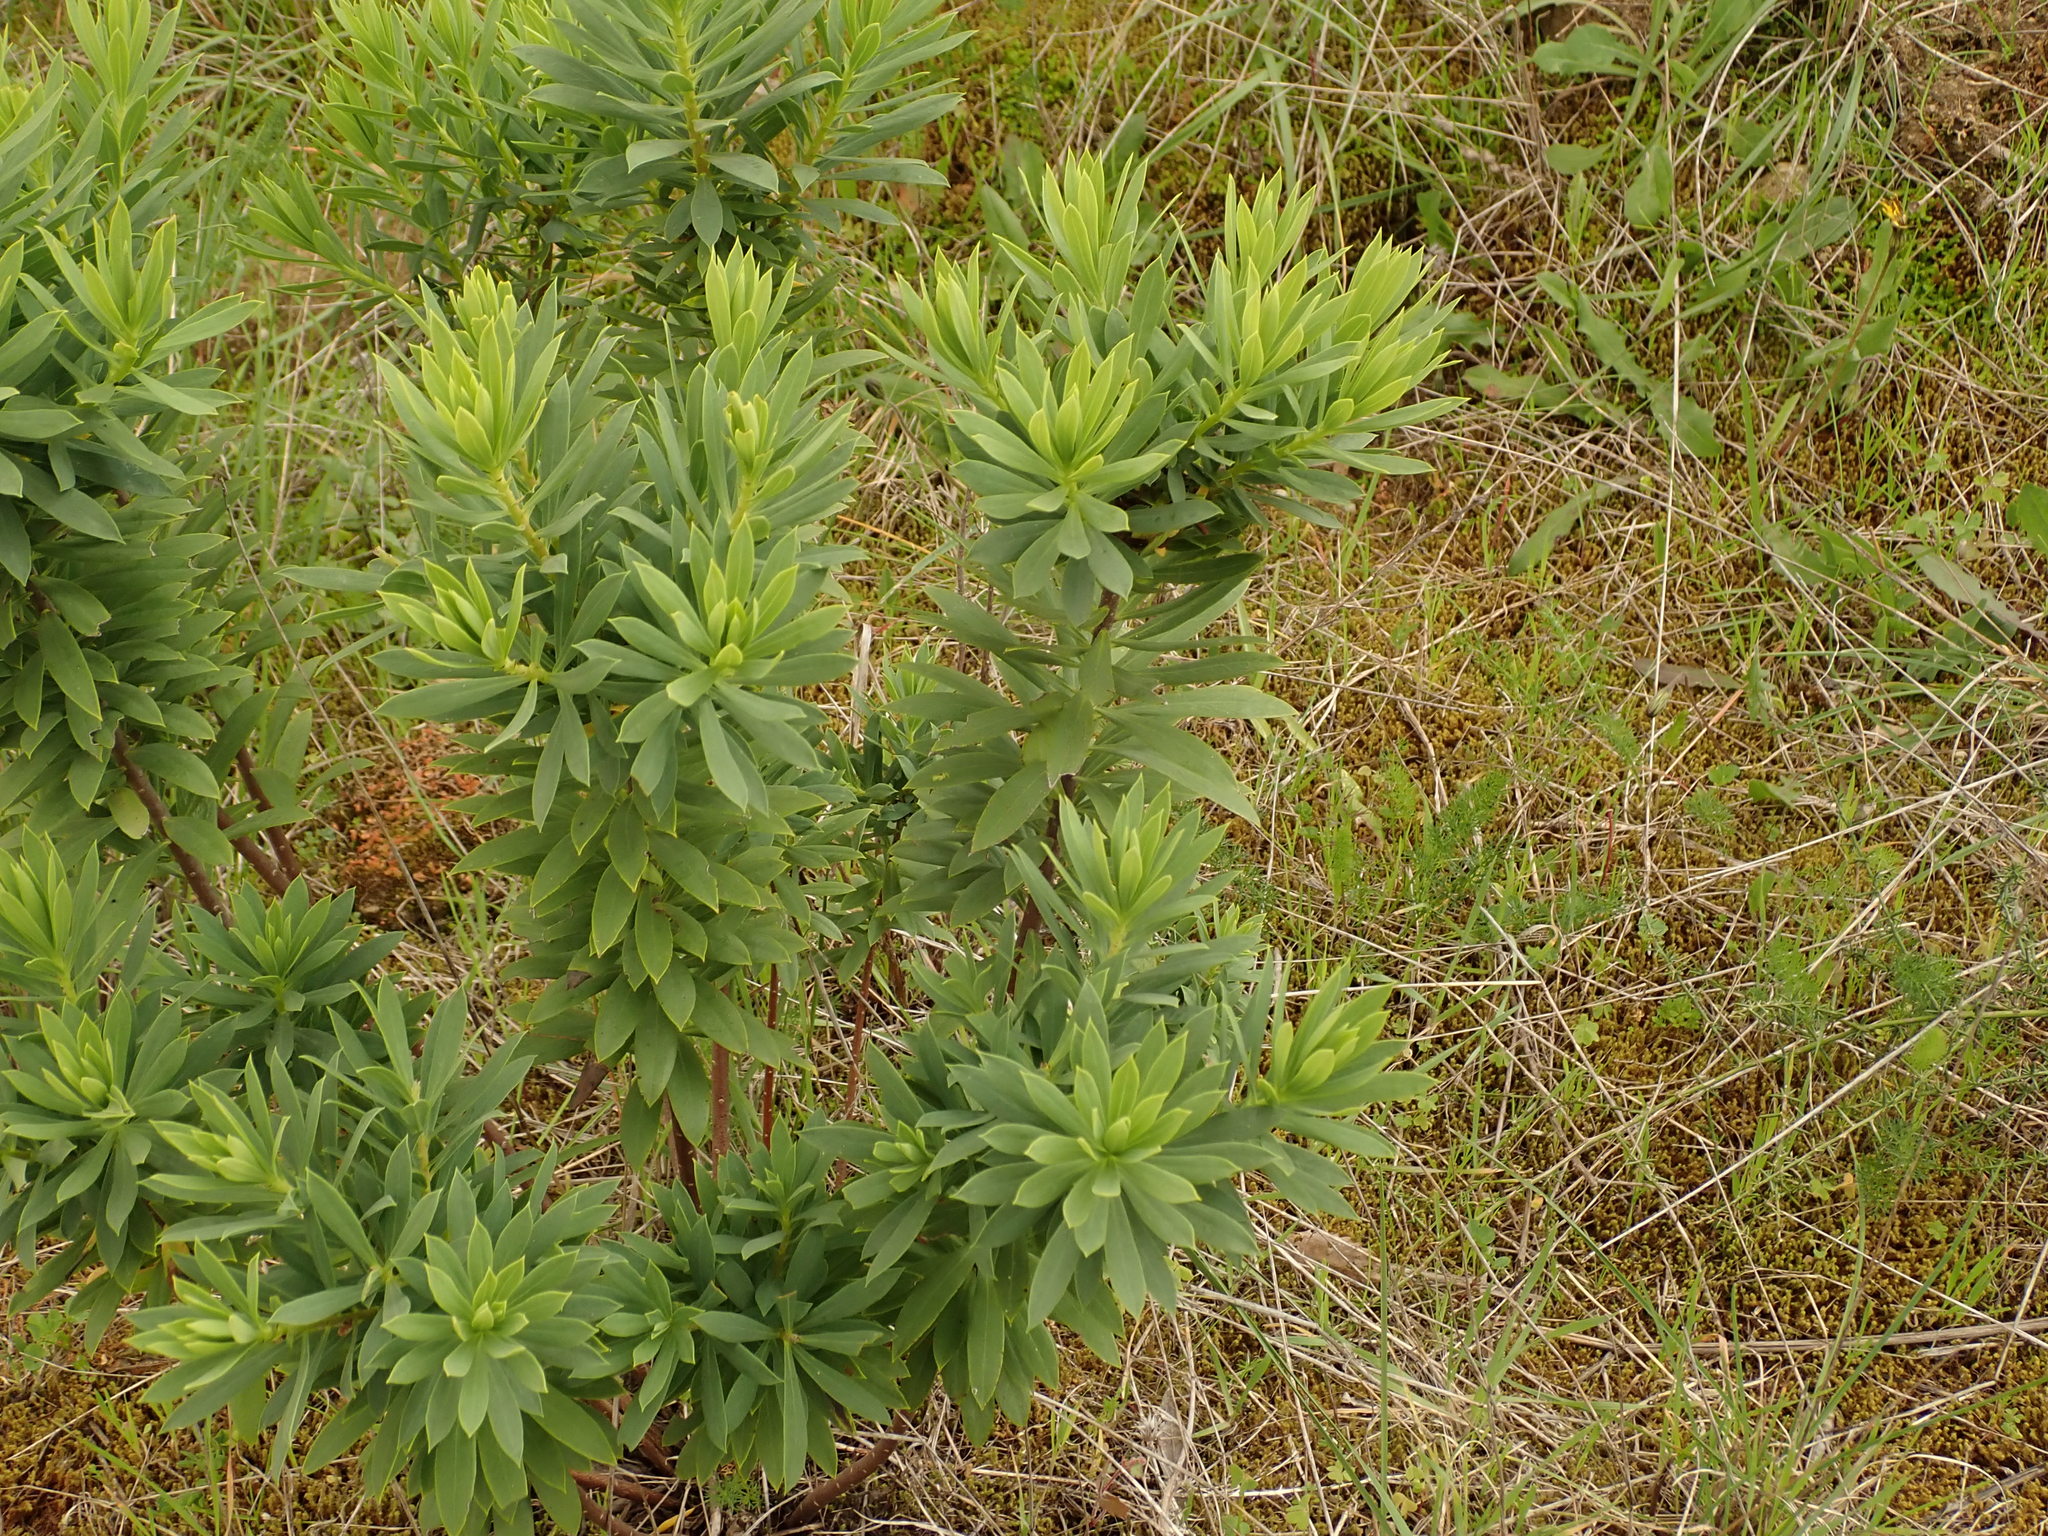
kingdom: Plantae
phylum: Tracheophyta
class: Magnoliopsida
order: Malvales
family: Thymelaeaceae
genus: Daphne
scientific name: Daphne gnidium
